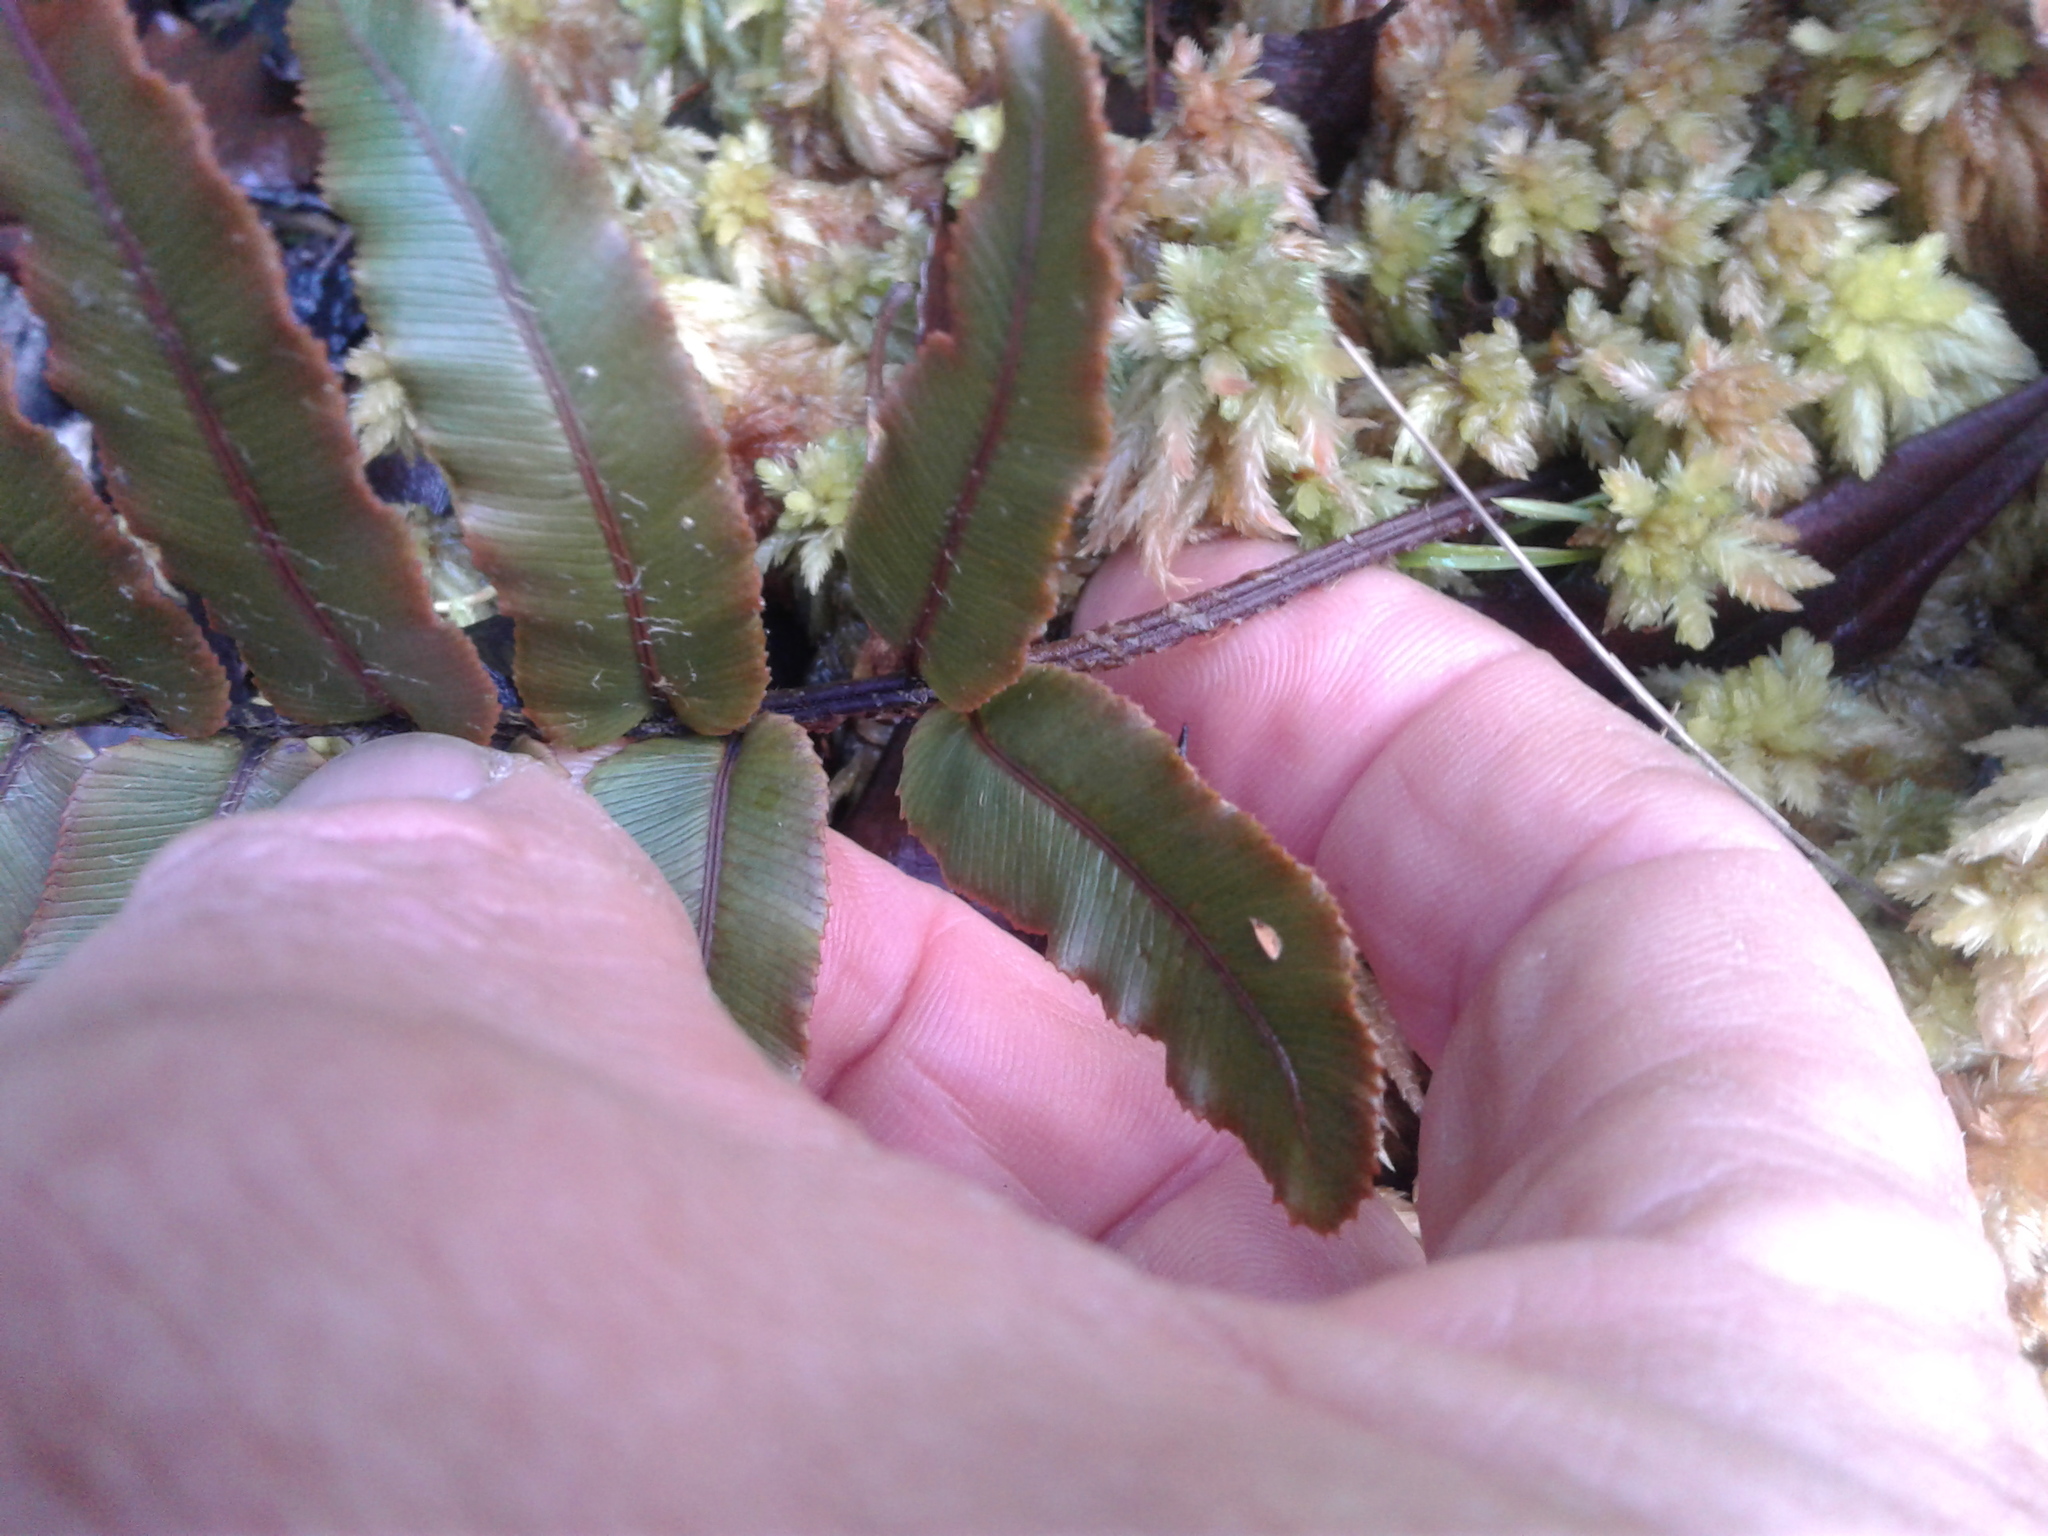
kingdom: Plantae
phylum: Tracheophyta
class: Polypodiopsida
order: Polypodiales
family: Blechnaceae
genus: Parablechnum
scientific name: Parablechnum procerum
